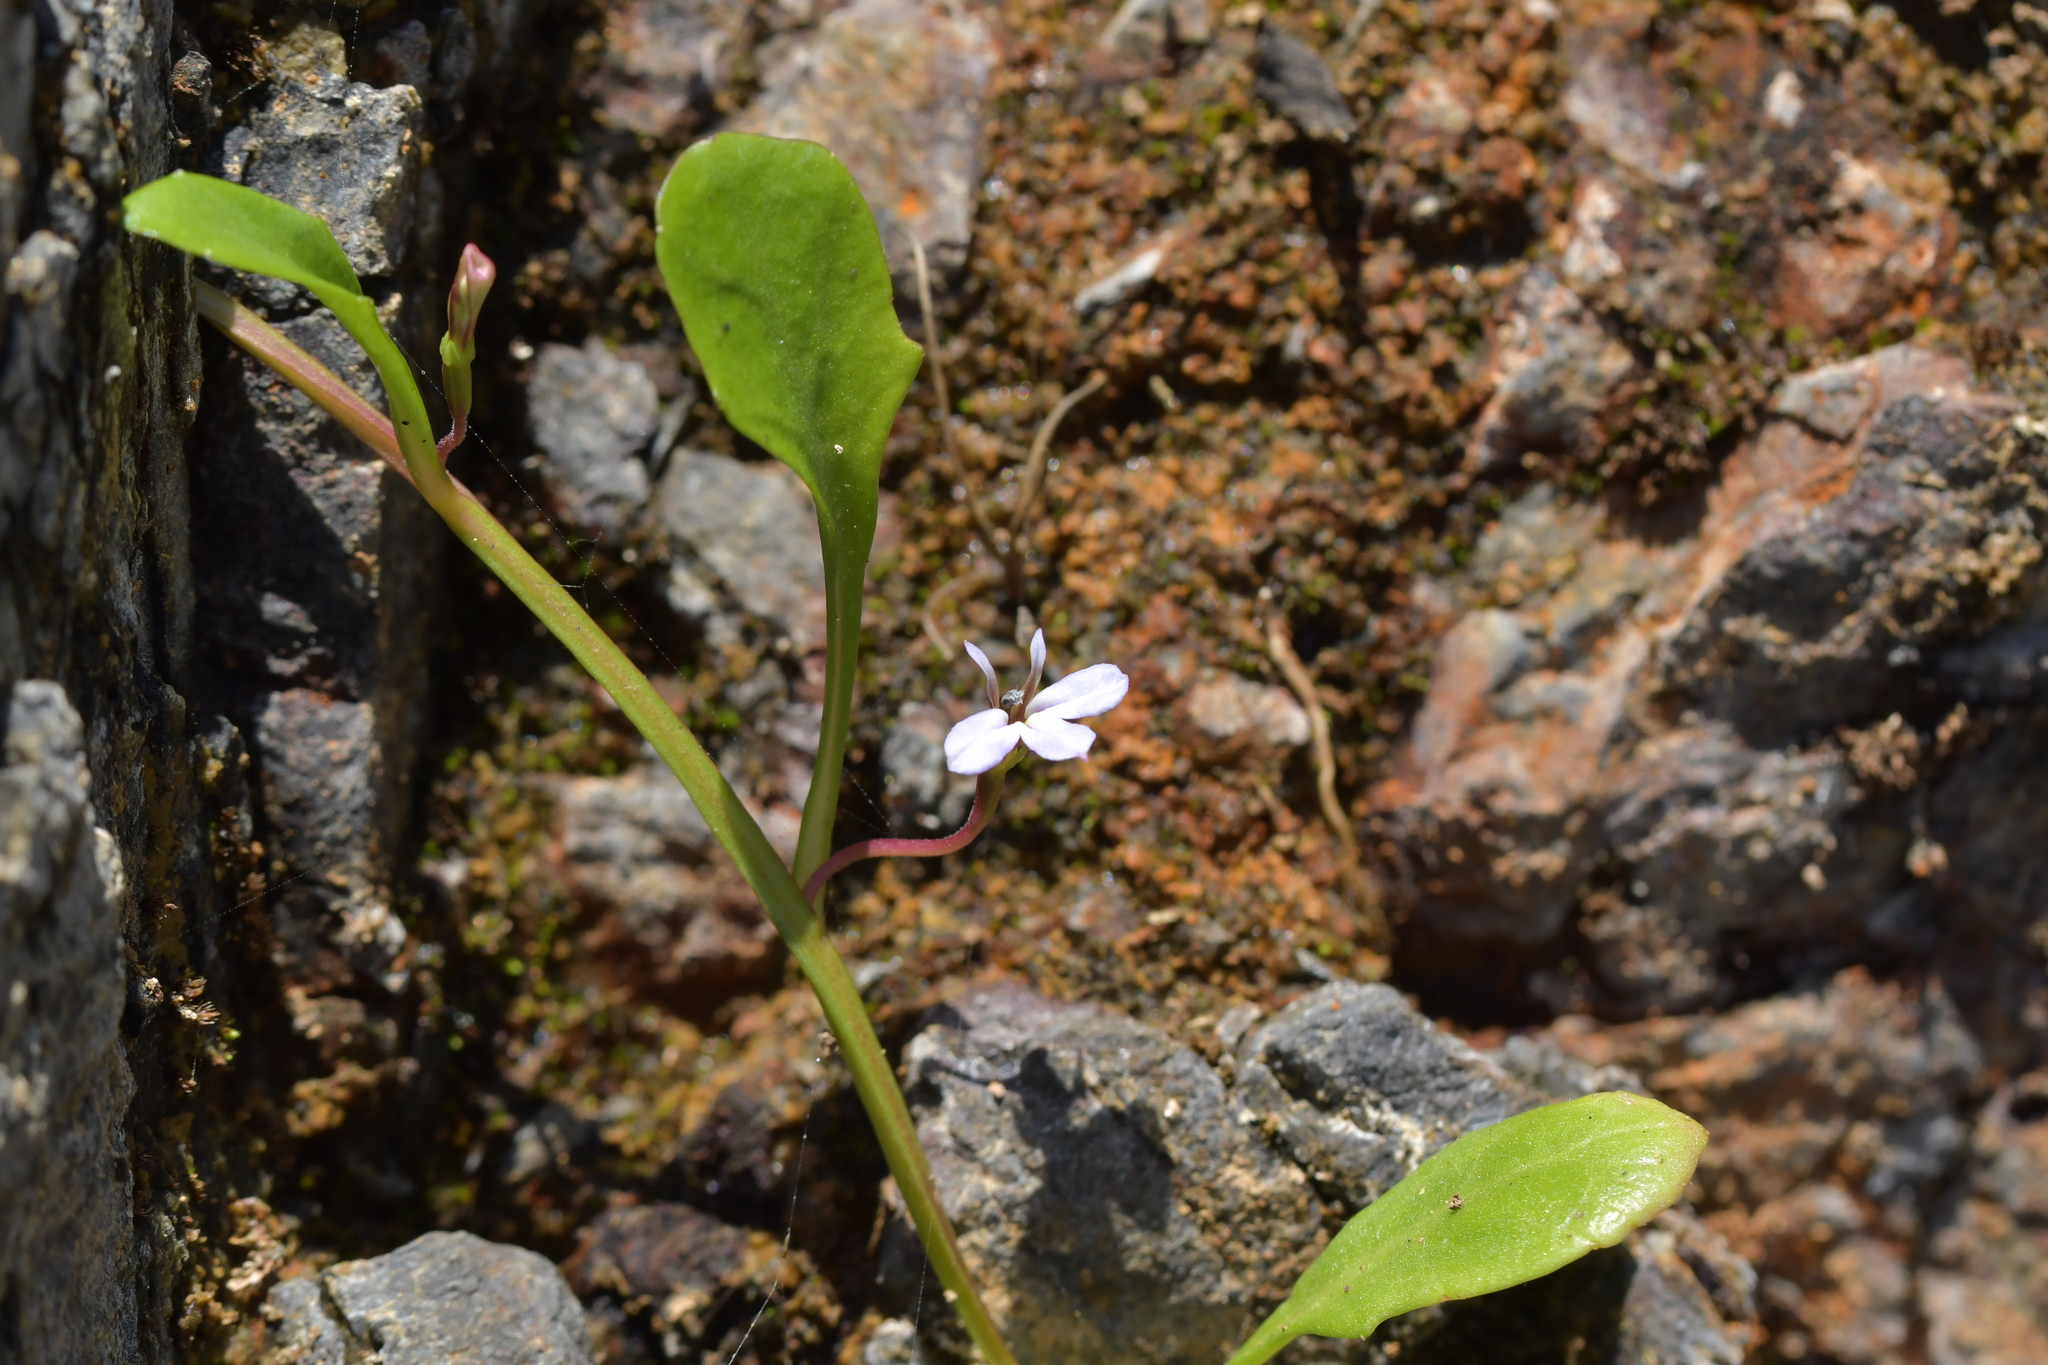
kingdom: Plantae
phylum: Tracheophyta
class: Magnoliopsida
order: Asterales
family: Campanulaceae
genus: Lobelia
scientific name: Lobelia anceps
